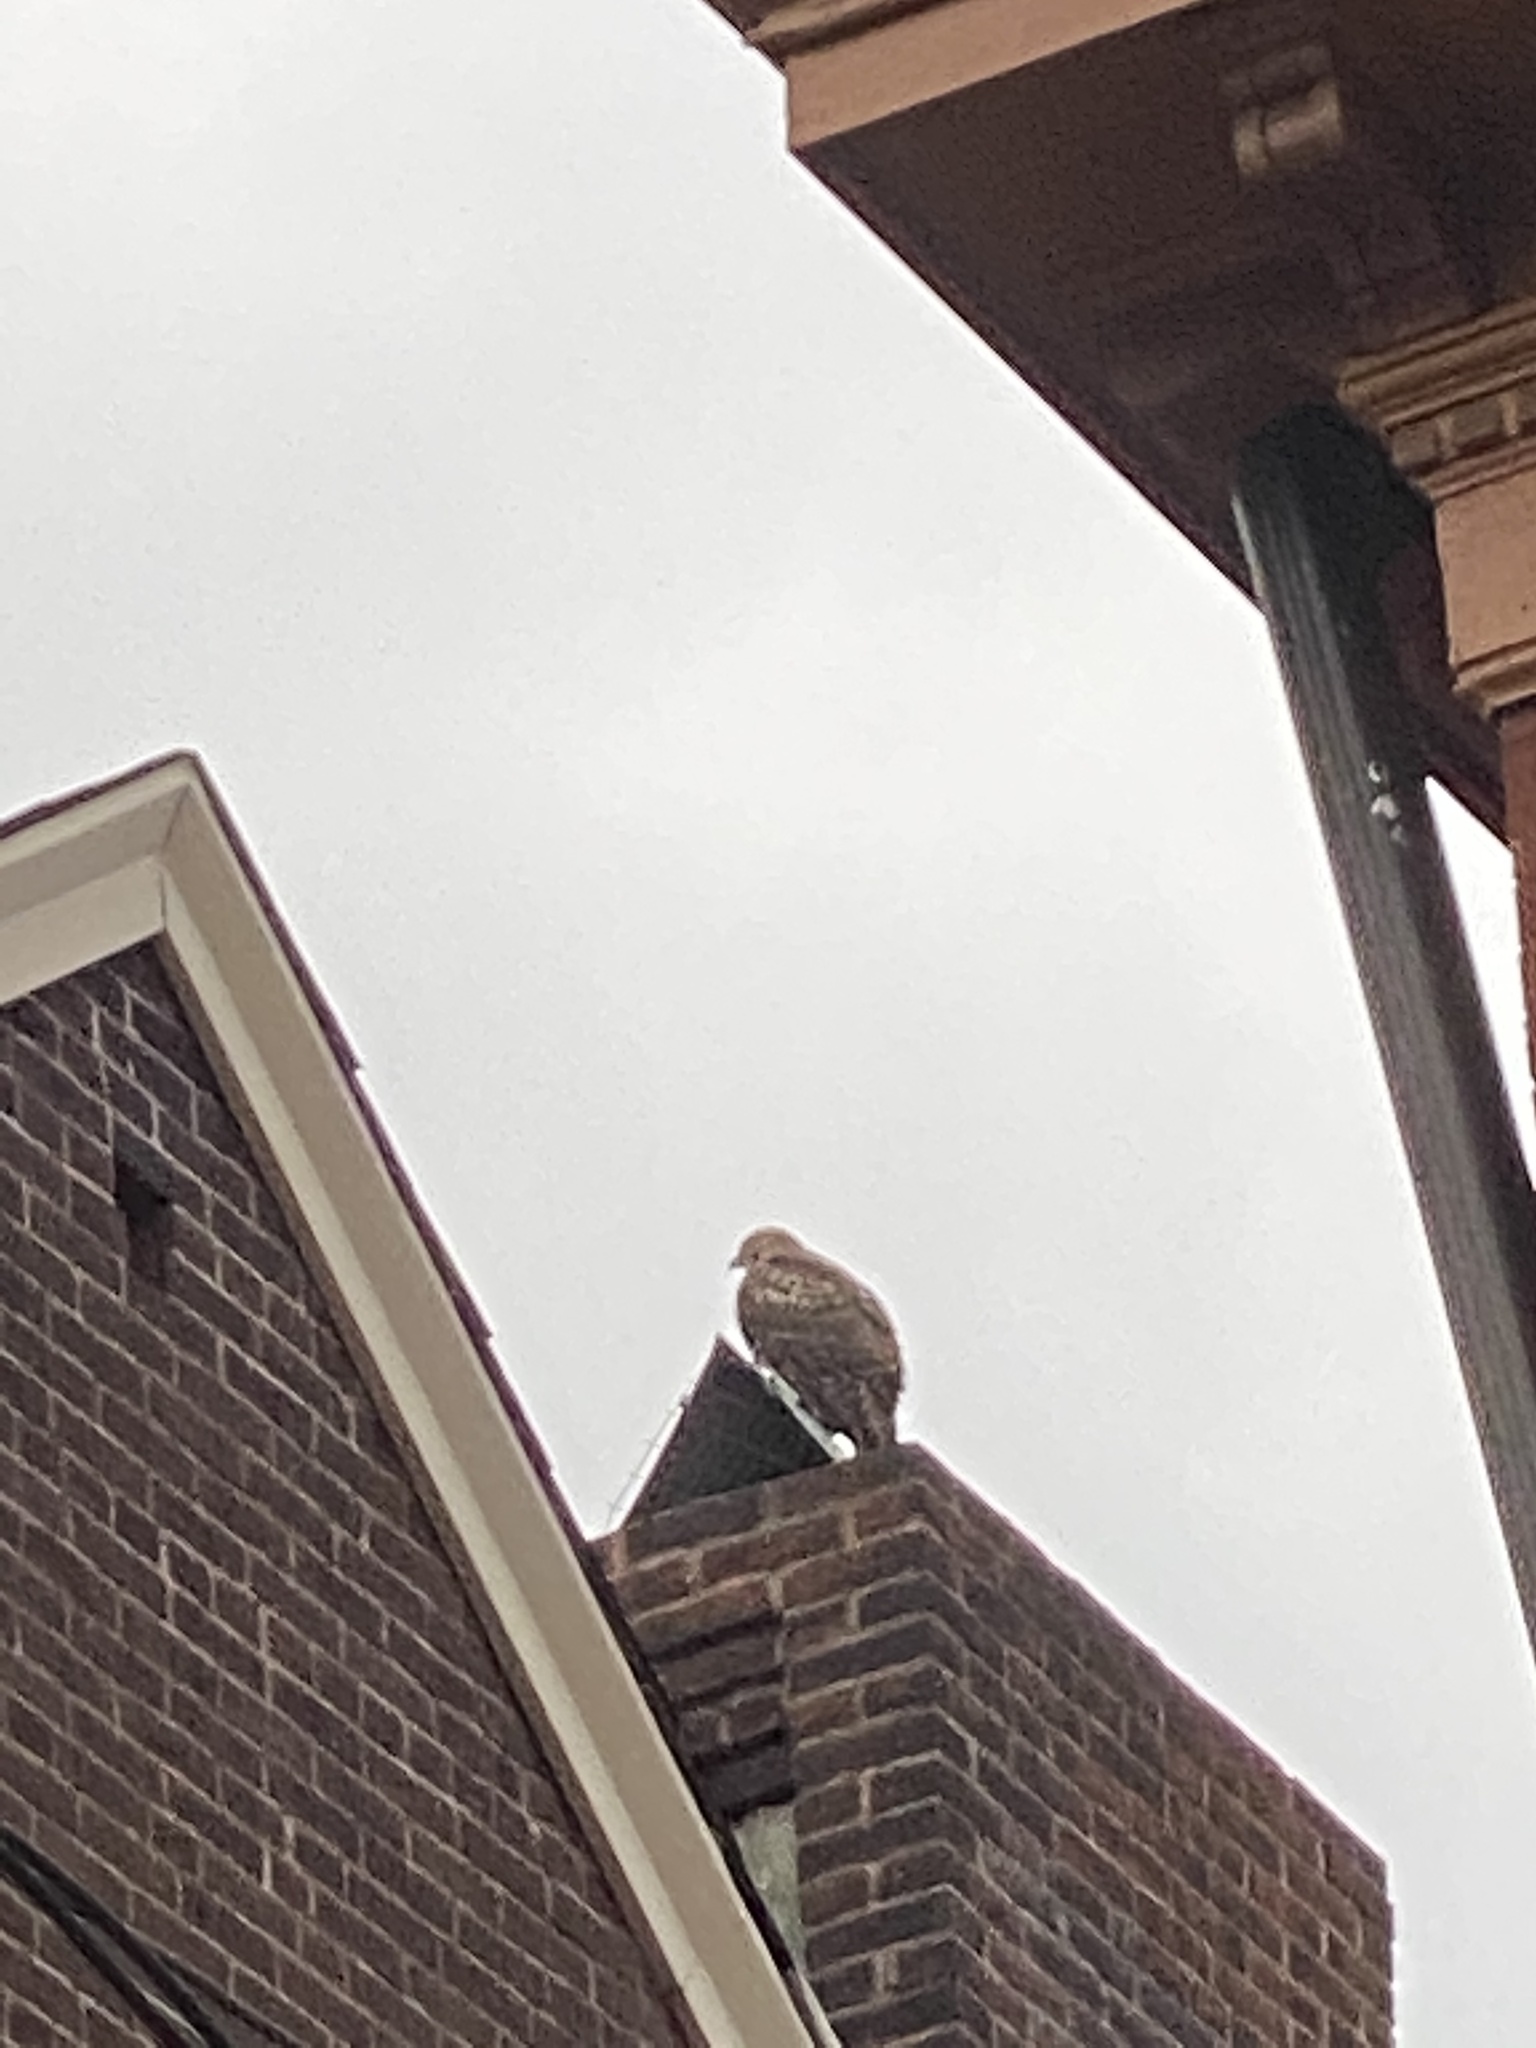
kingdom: Animalia
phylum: Chordata
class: Aves
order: Accipitriformes
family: Accipitridae
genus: Buteo
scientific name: Buteo jamaicensis
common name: Red-tailed hawk
